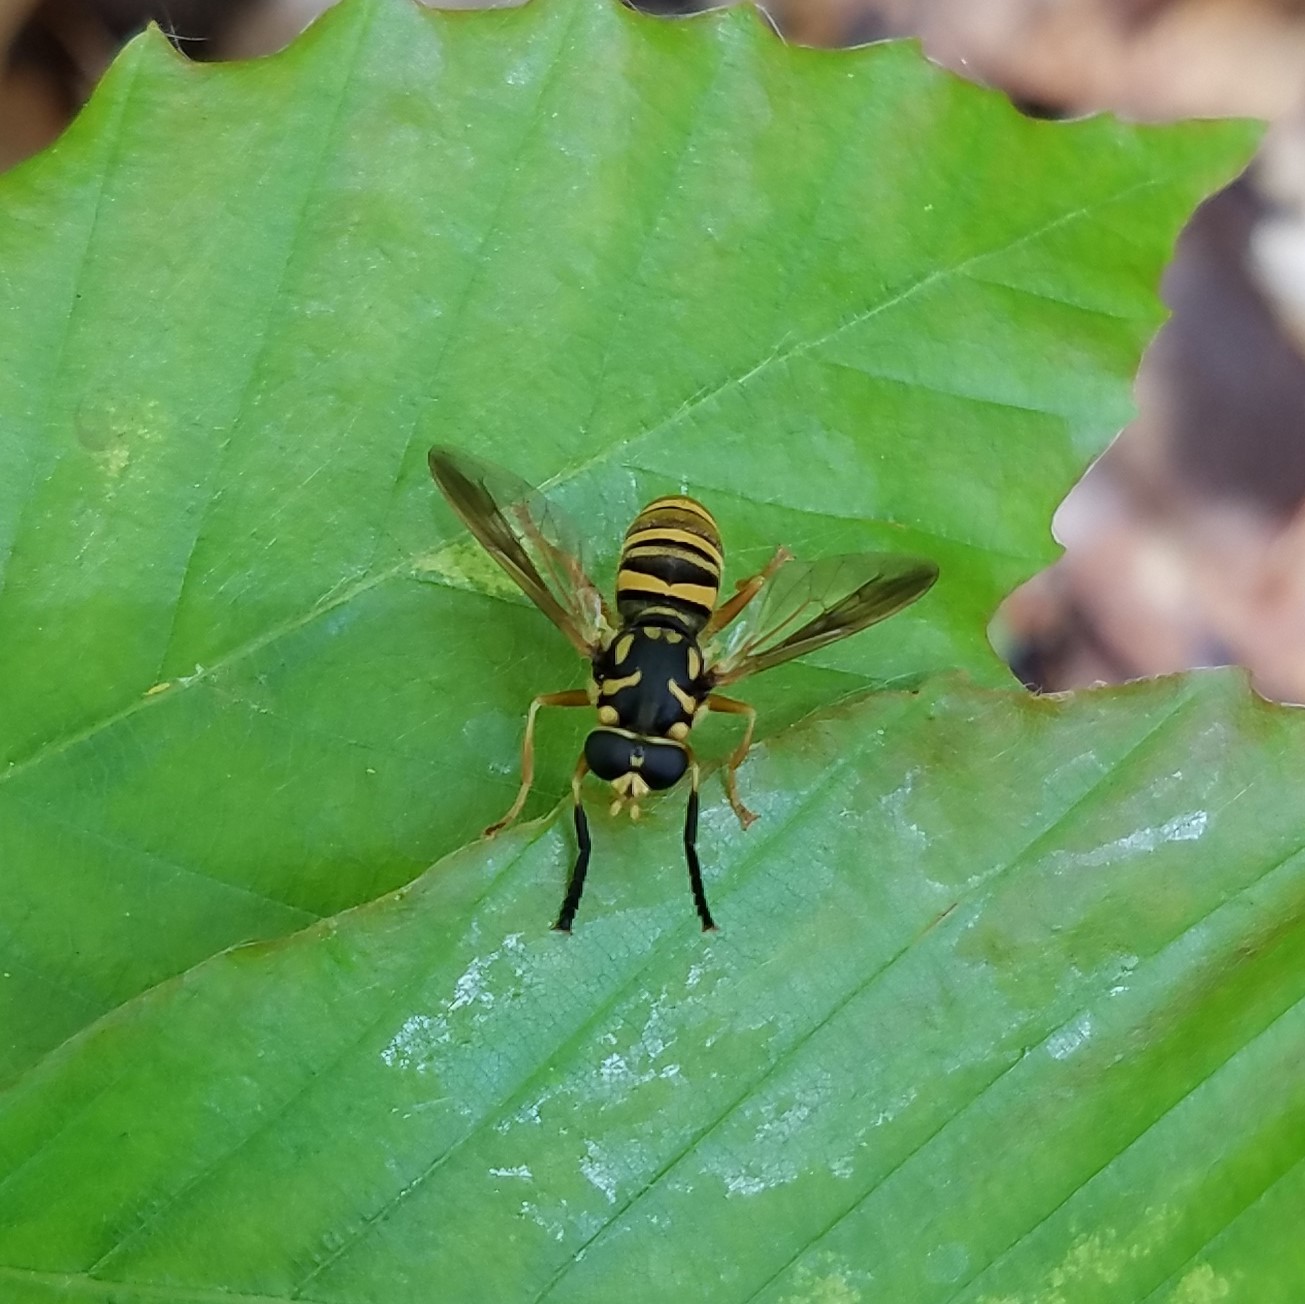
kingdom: Animalia
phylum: Arthropoda
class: Insecta
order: Diptera
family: Syrphidae
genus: Temnostoma
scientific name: Temnostoma daochum
